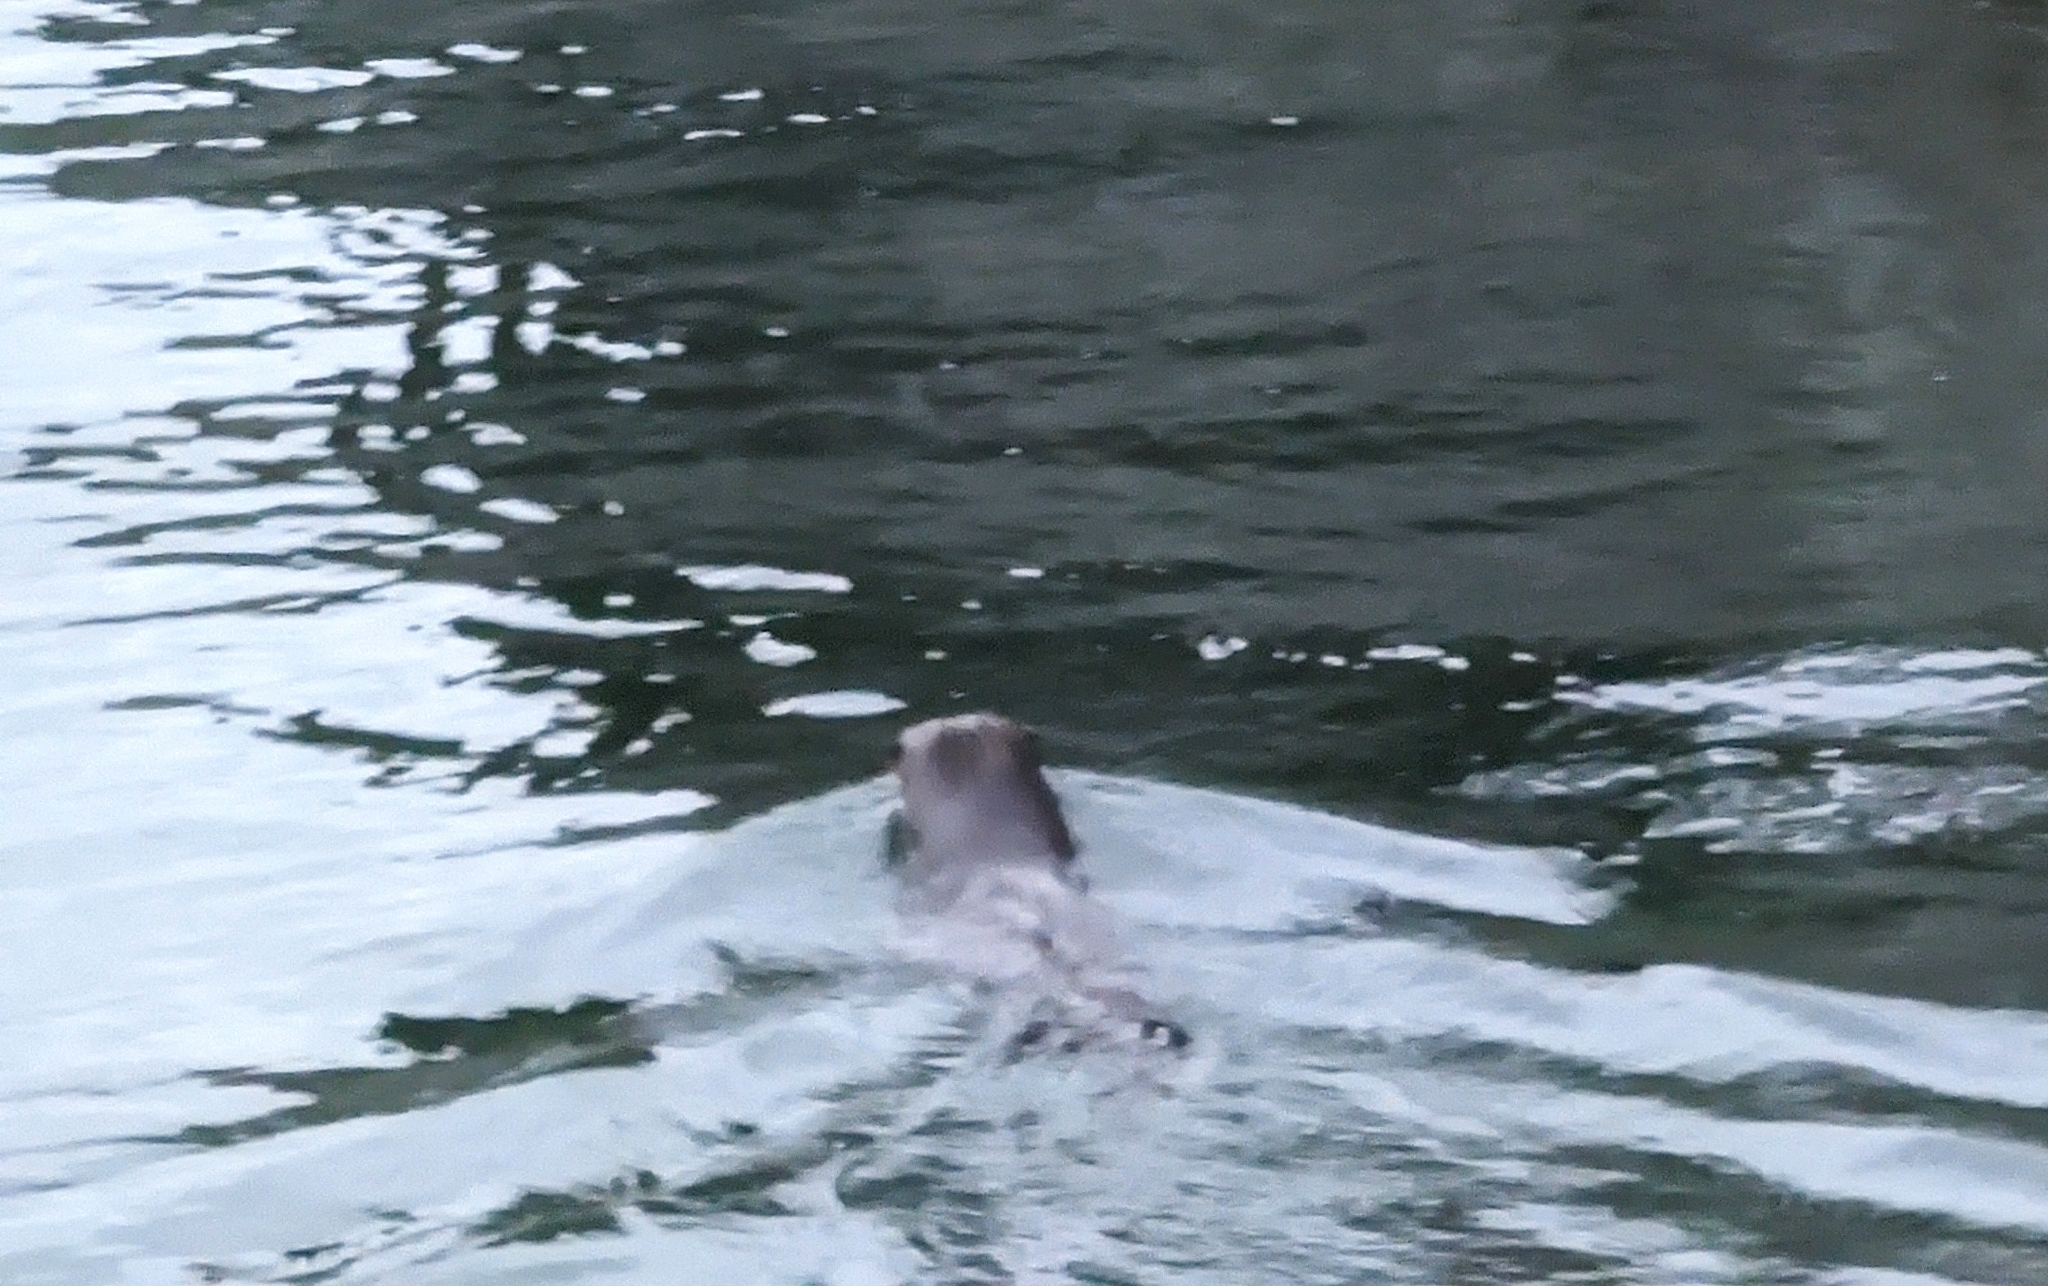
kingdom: Animalia
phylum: Chordata
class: Mammalia
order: Carnivora
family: Mustelidae
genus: Lontra
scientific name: Lontra canadensis
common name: North american river otter
